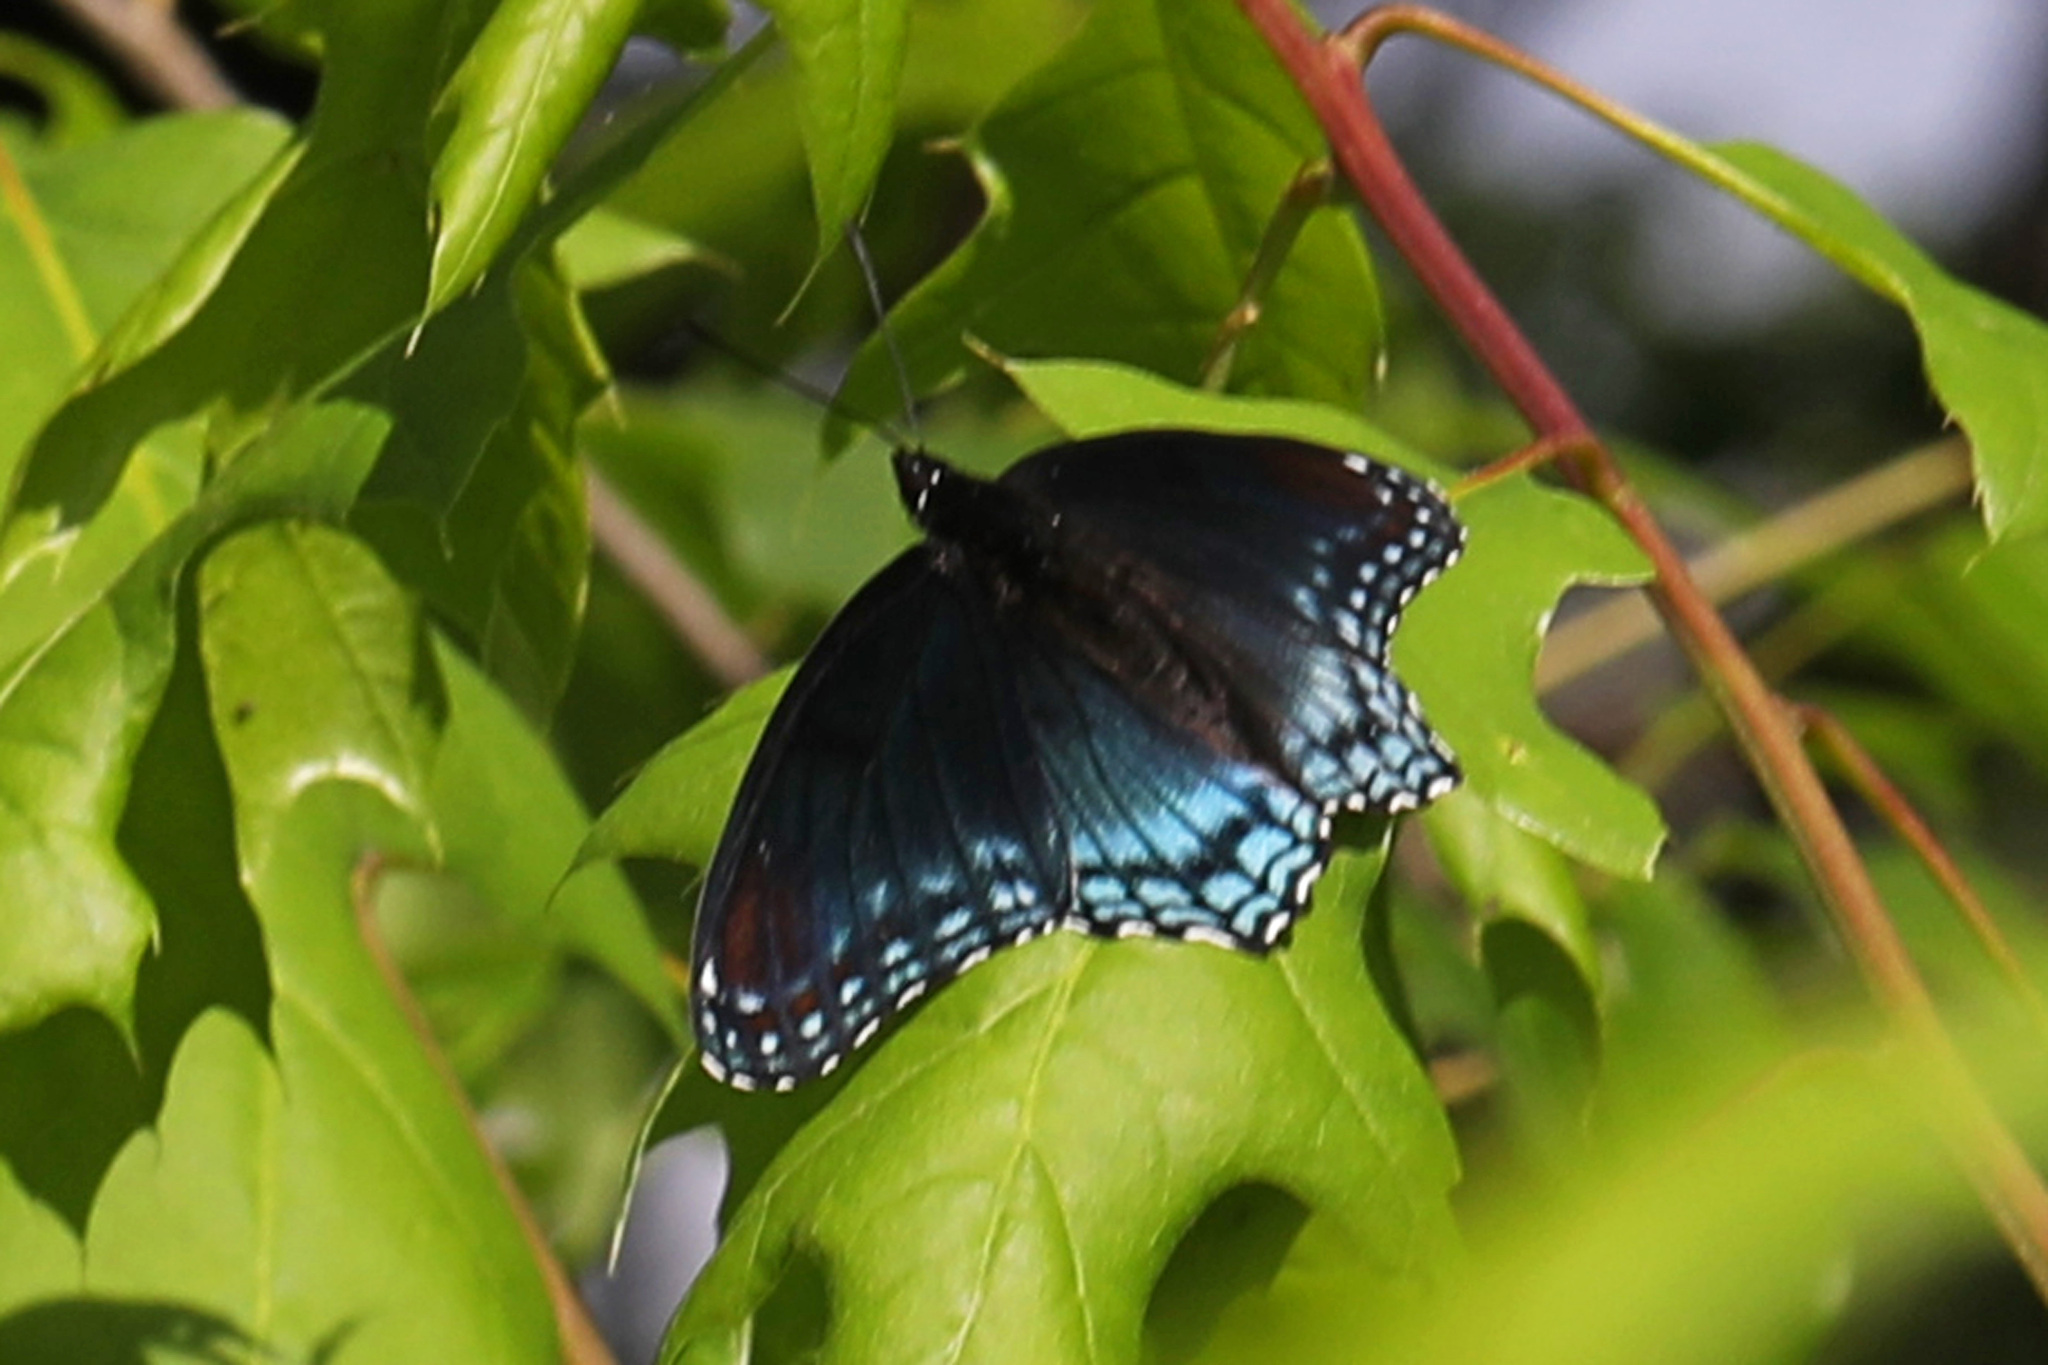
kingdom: Animalia
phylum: Arthropoda
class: Insecta
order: Lepidoptera
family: Nymphalidae
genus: Limenitis
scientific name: Limenitis astyanax
